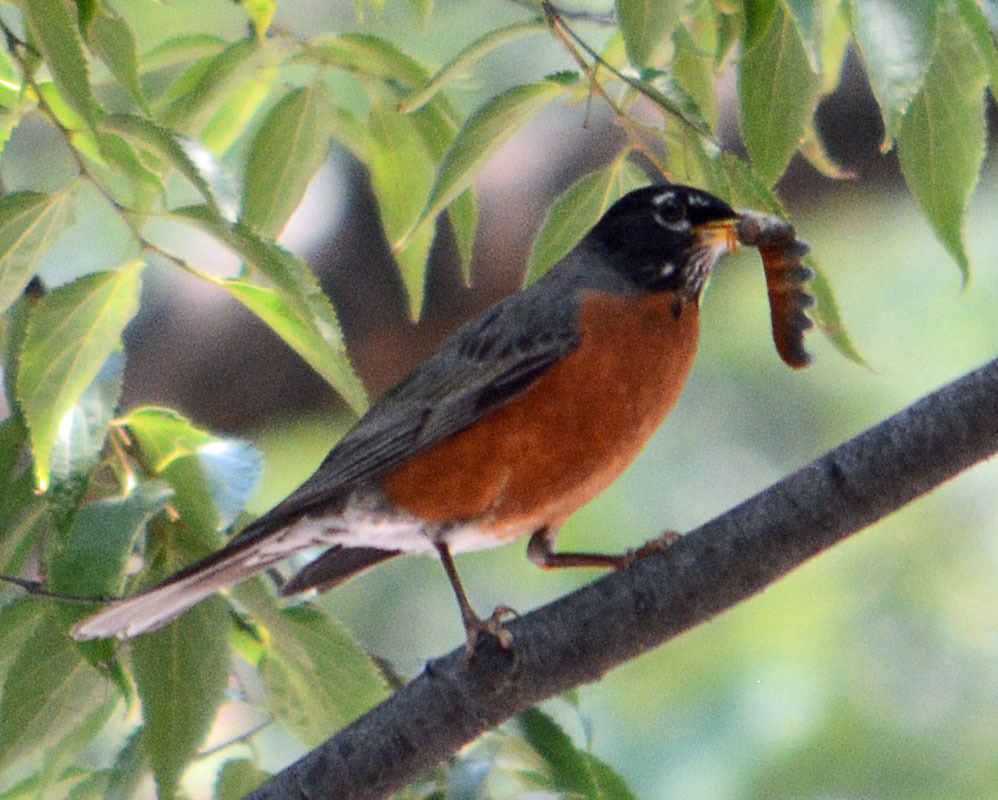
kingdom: Animalia
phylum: Chordata
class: Aves
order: Passeriformes
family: Turdidae
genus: Turdus
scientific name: Turdus migratorius
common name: American robin
